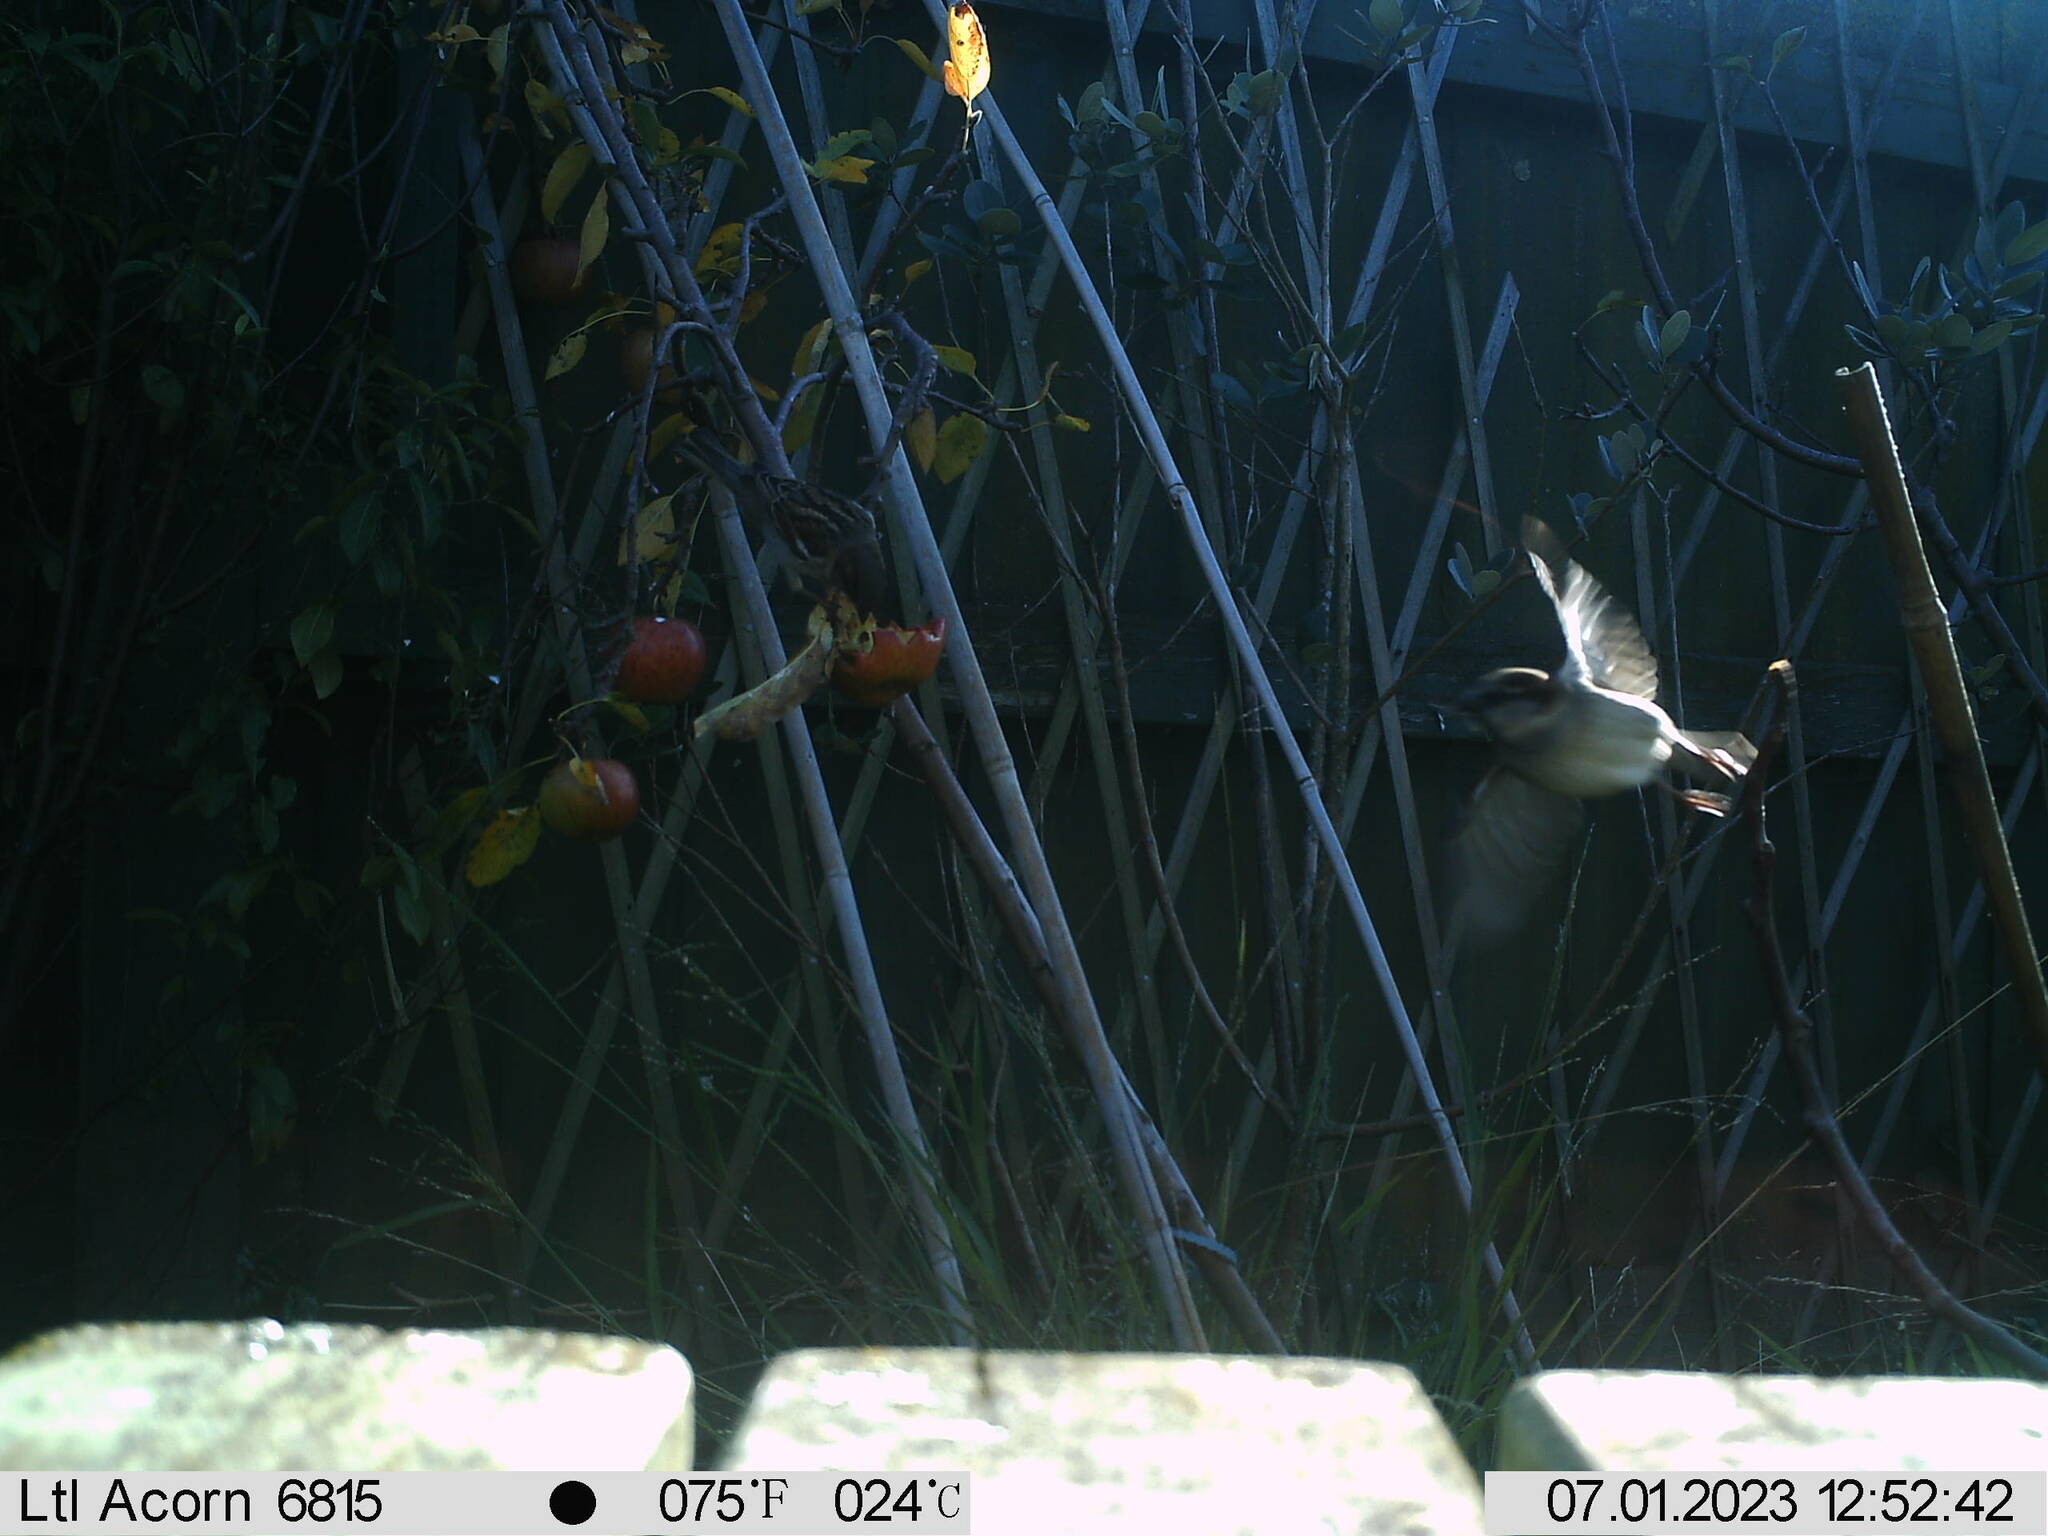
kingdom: Animalia
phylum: Chordata
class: Aves
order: Passeriformes
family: Passeridae
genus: Passer
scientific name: Passer domesticus
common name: House sparrow
